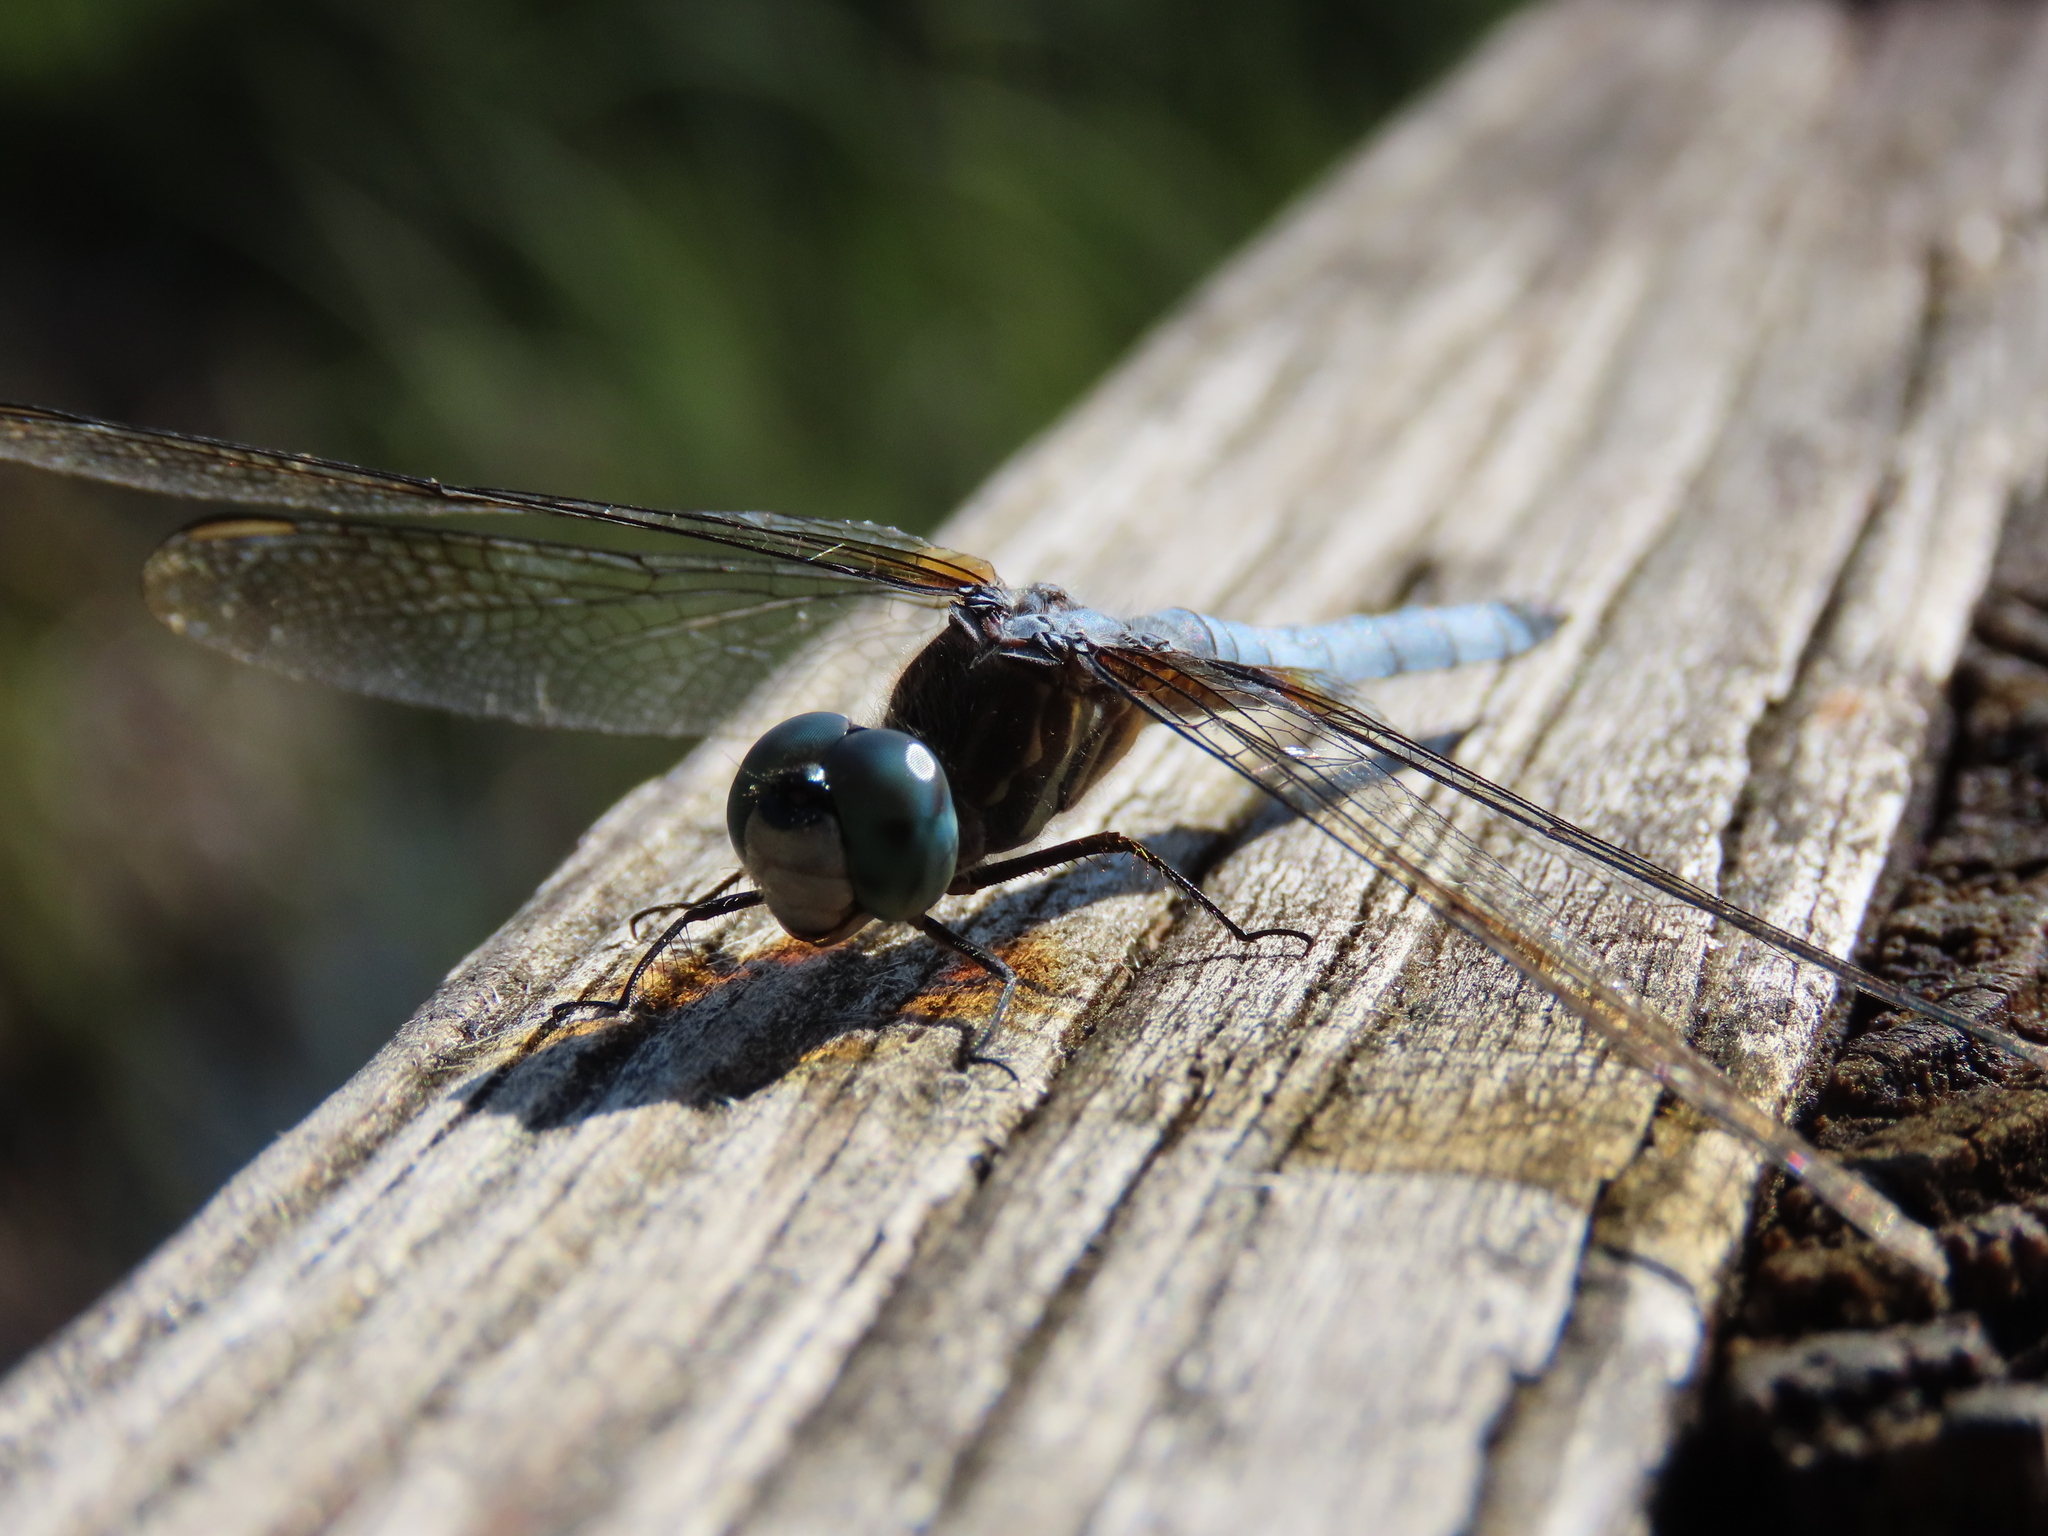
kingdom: Animalia
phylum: Arthropoda
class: Insecta
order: Odonata
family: Libellulidae
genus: Pachydiplax
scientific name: Pachydiplax longipennis
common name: Blue dasher
